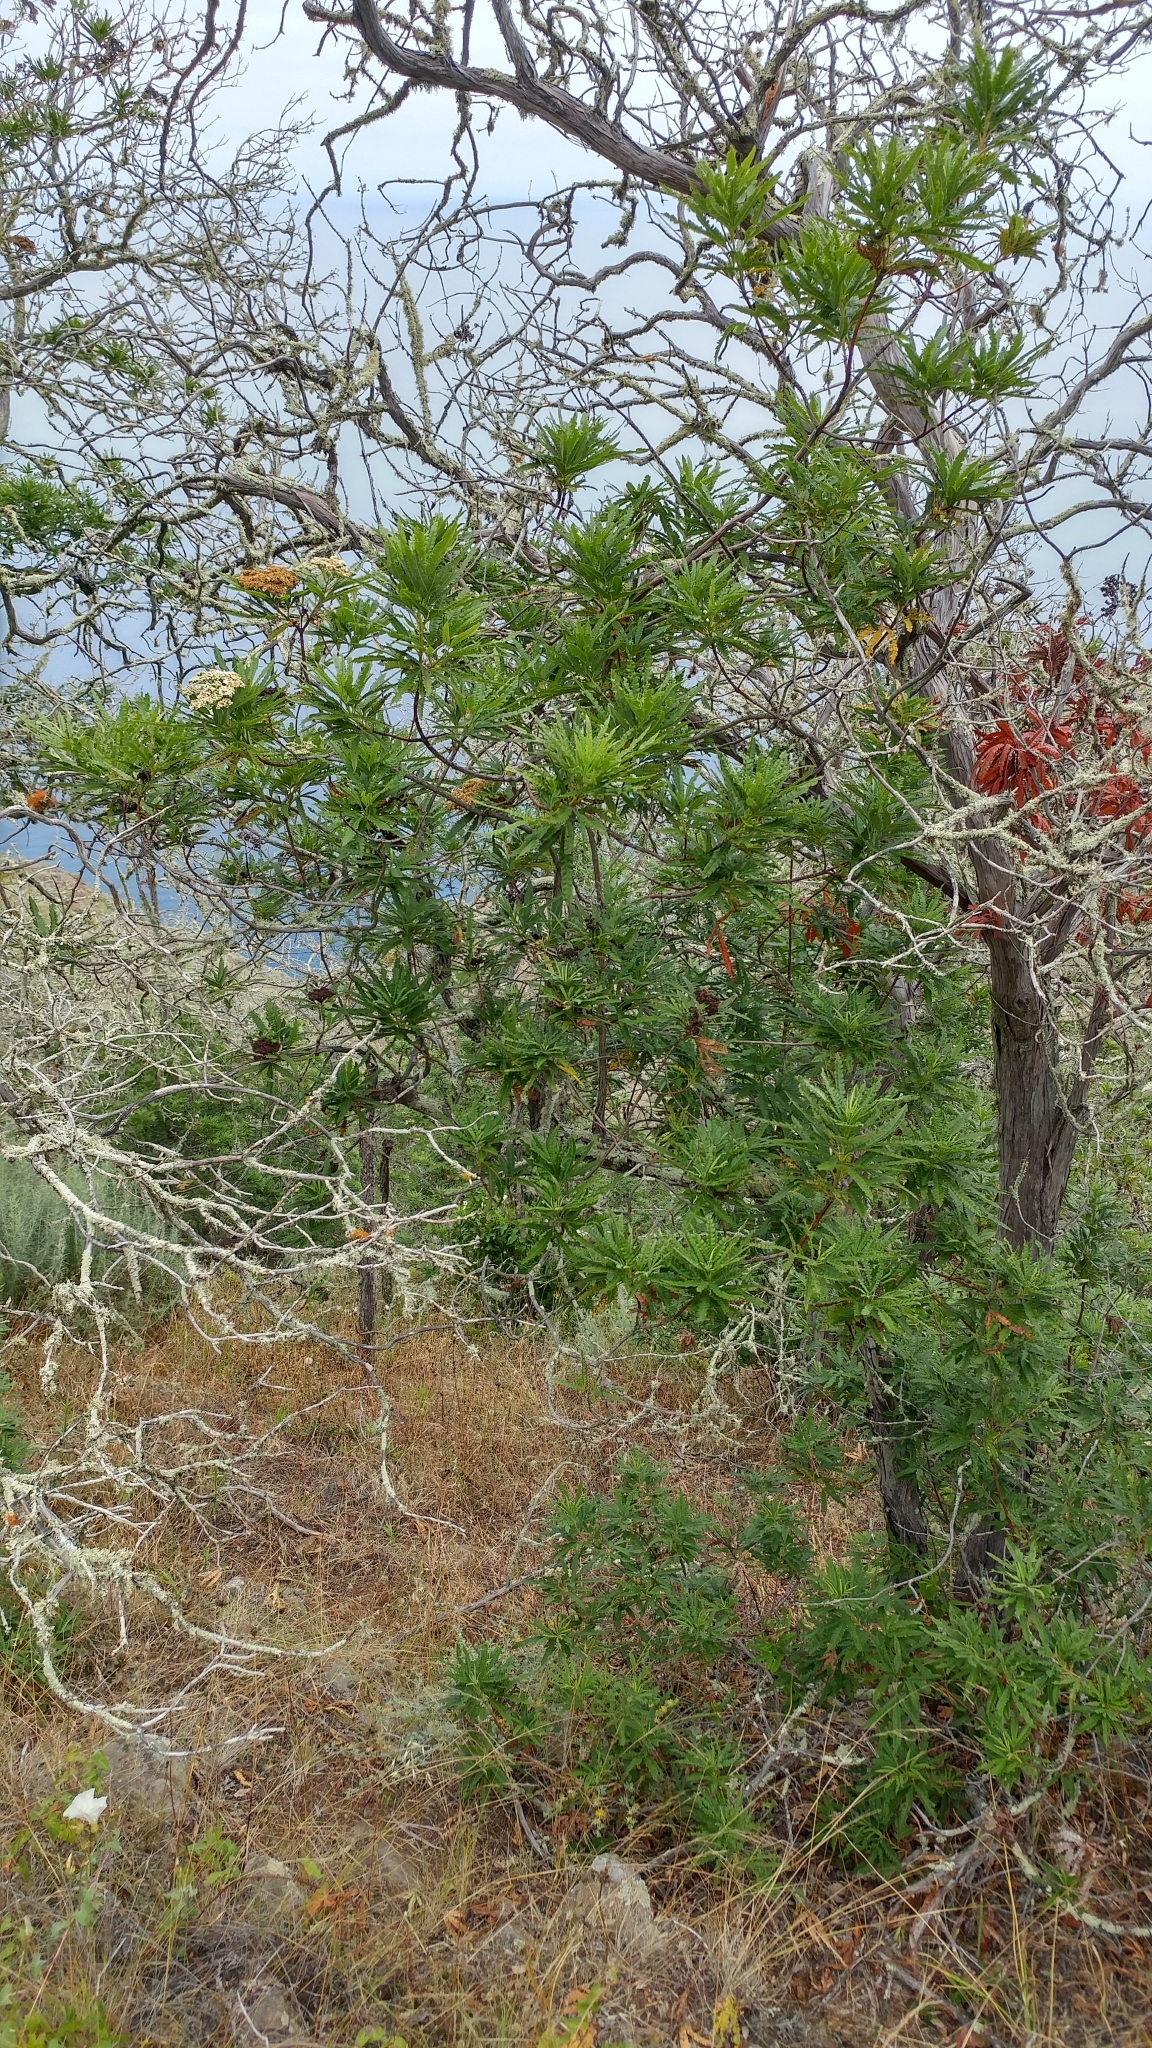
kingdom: Plantae
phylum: Tracheophyta
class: Magnoliopsida
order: Rosales
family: Rosaceae
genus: Lyonothamnus
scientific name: Lyonothamnus floribundus
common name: Catalina ironwood
